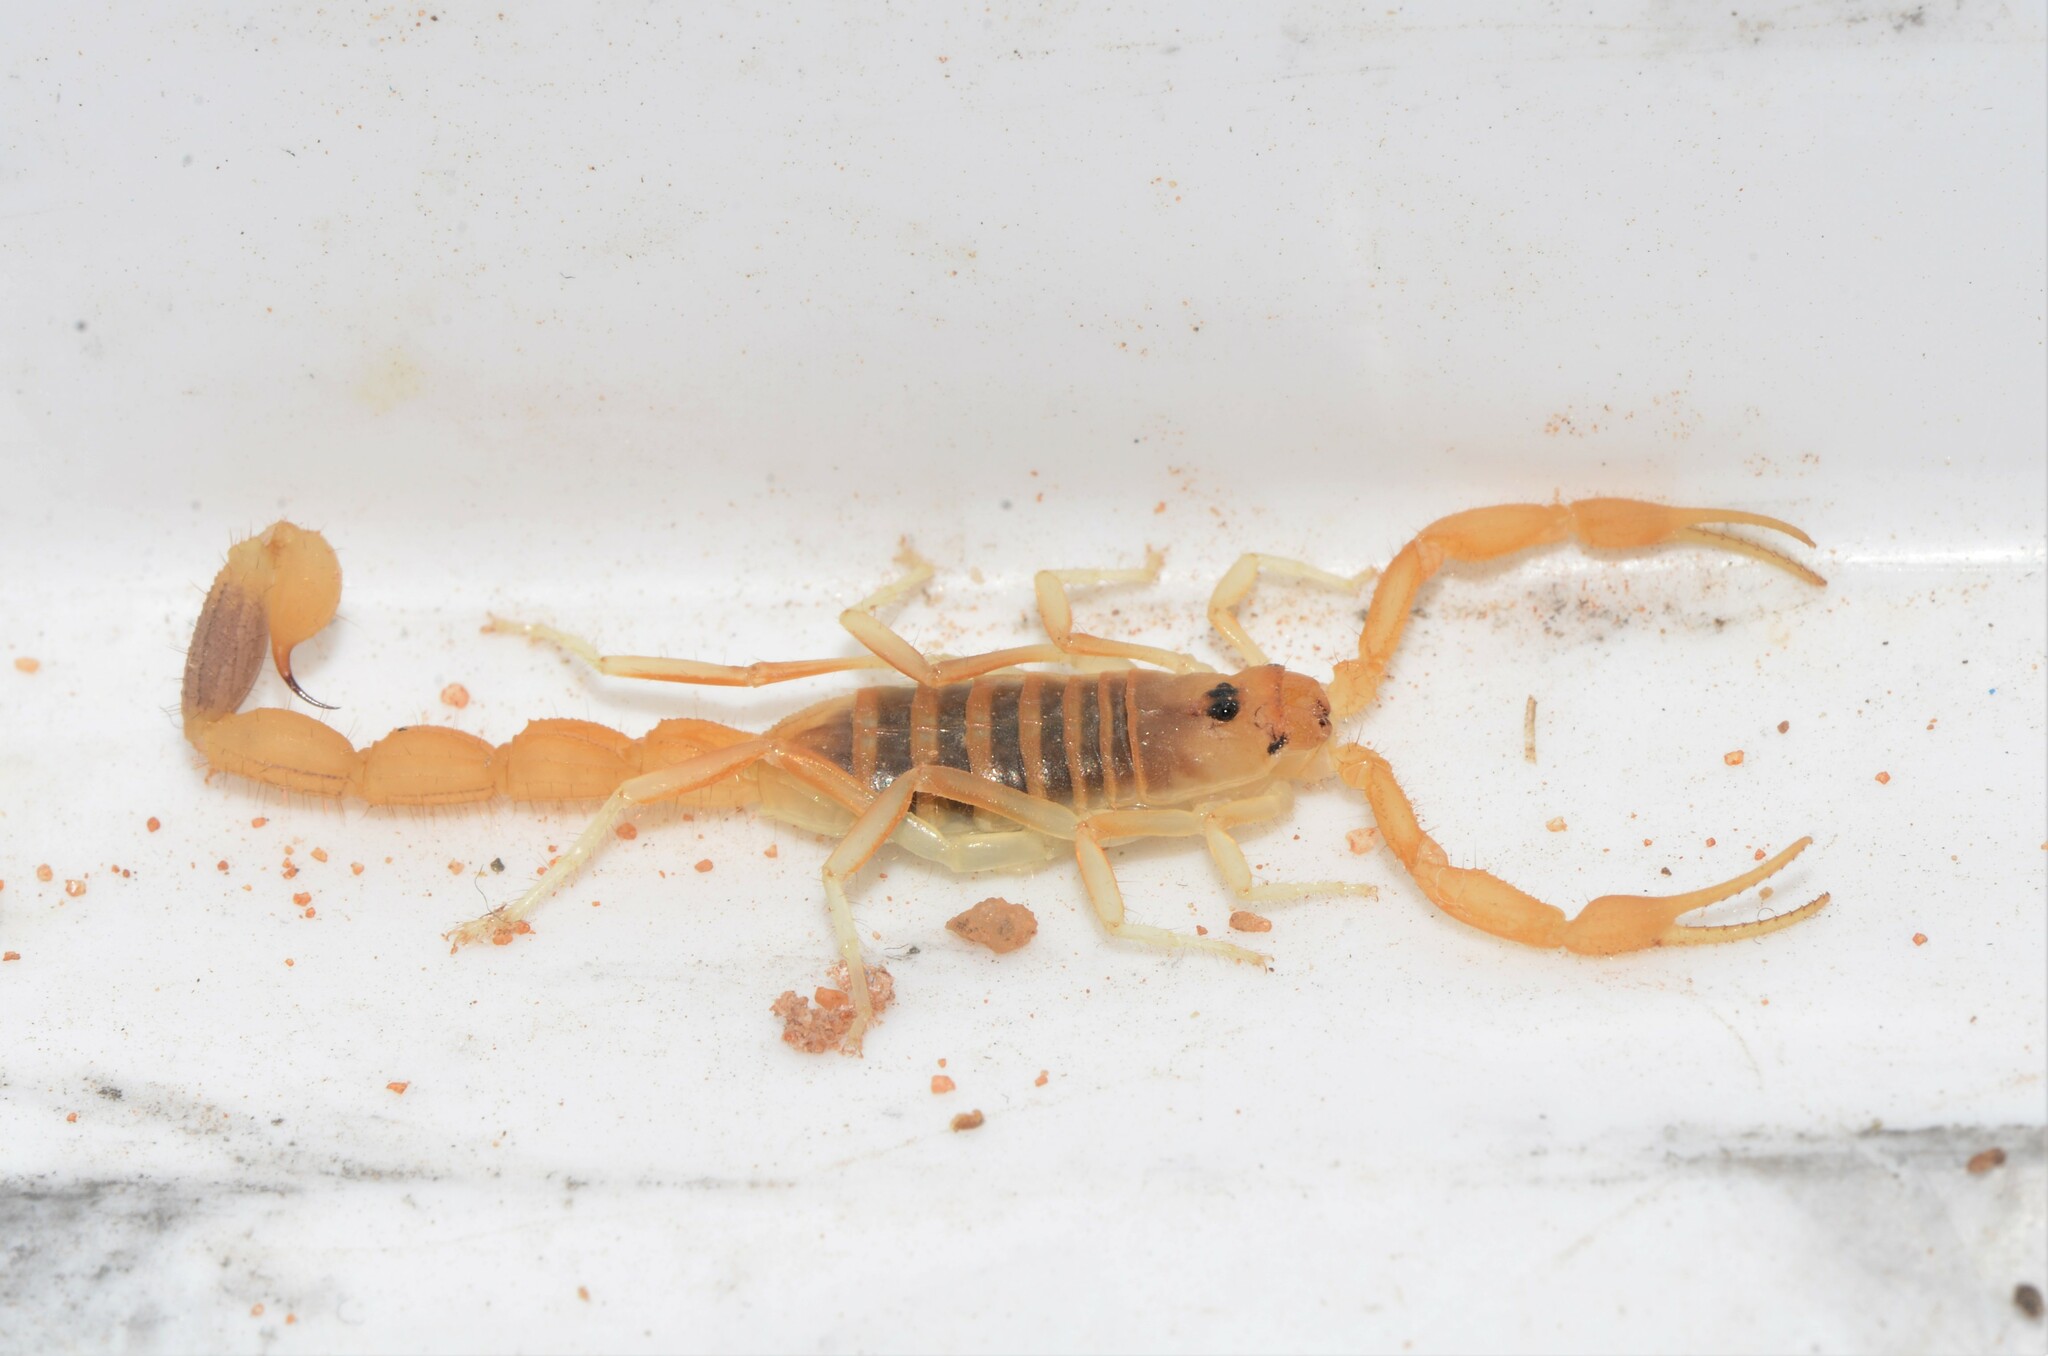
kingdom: Animalia
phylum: Arthropoda
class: Arachnida
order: Scorpiones
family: Buthidae
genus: Uroplectes
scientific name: Uroplectes gracilior
